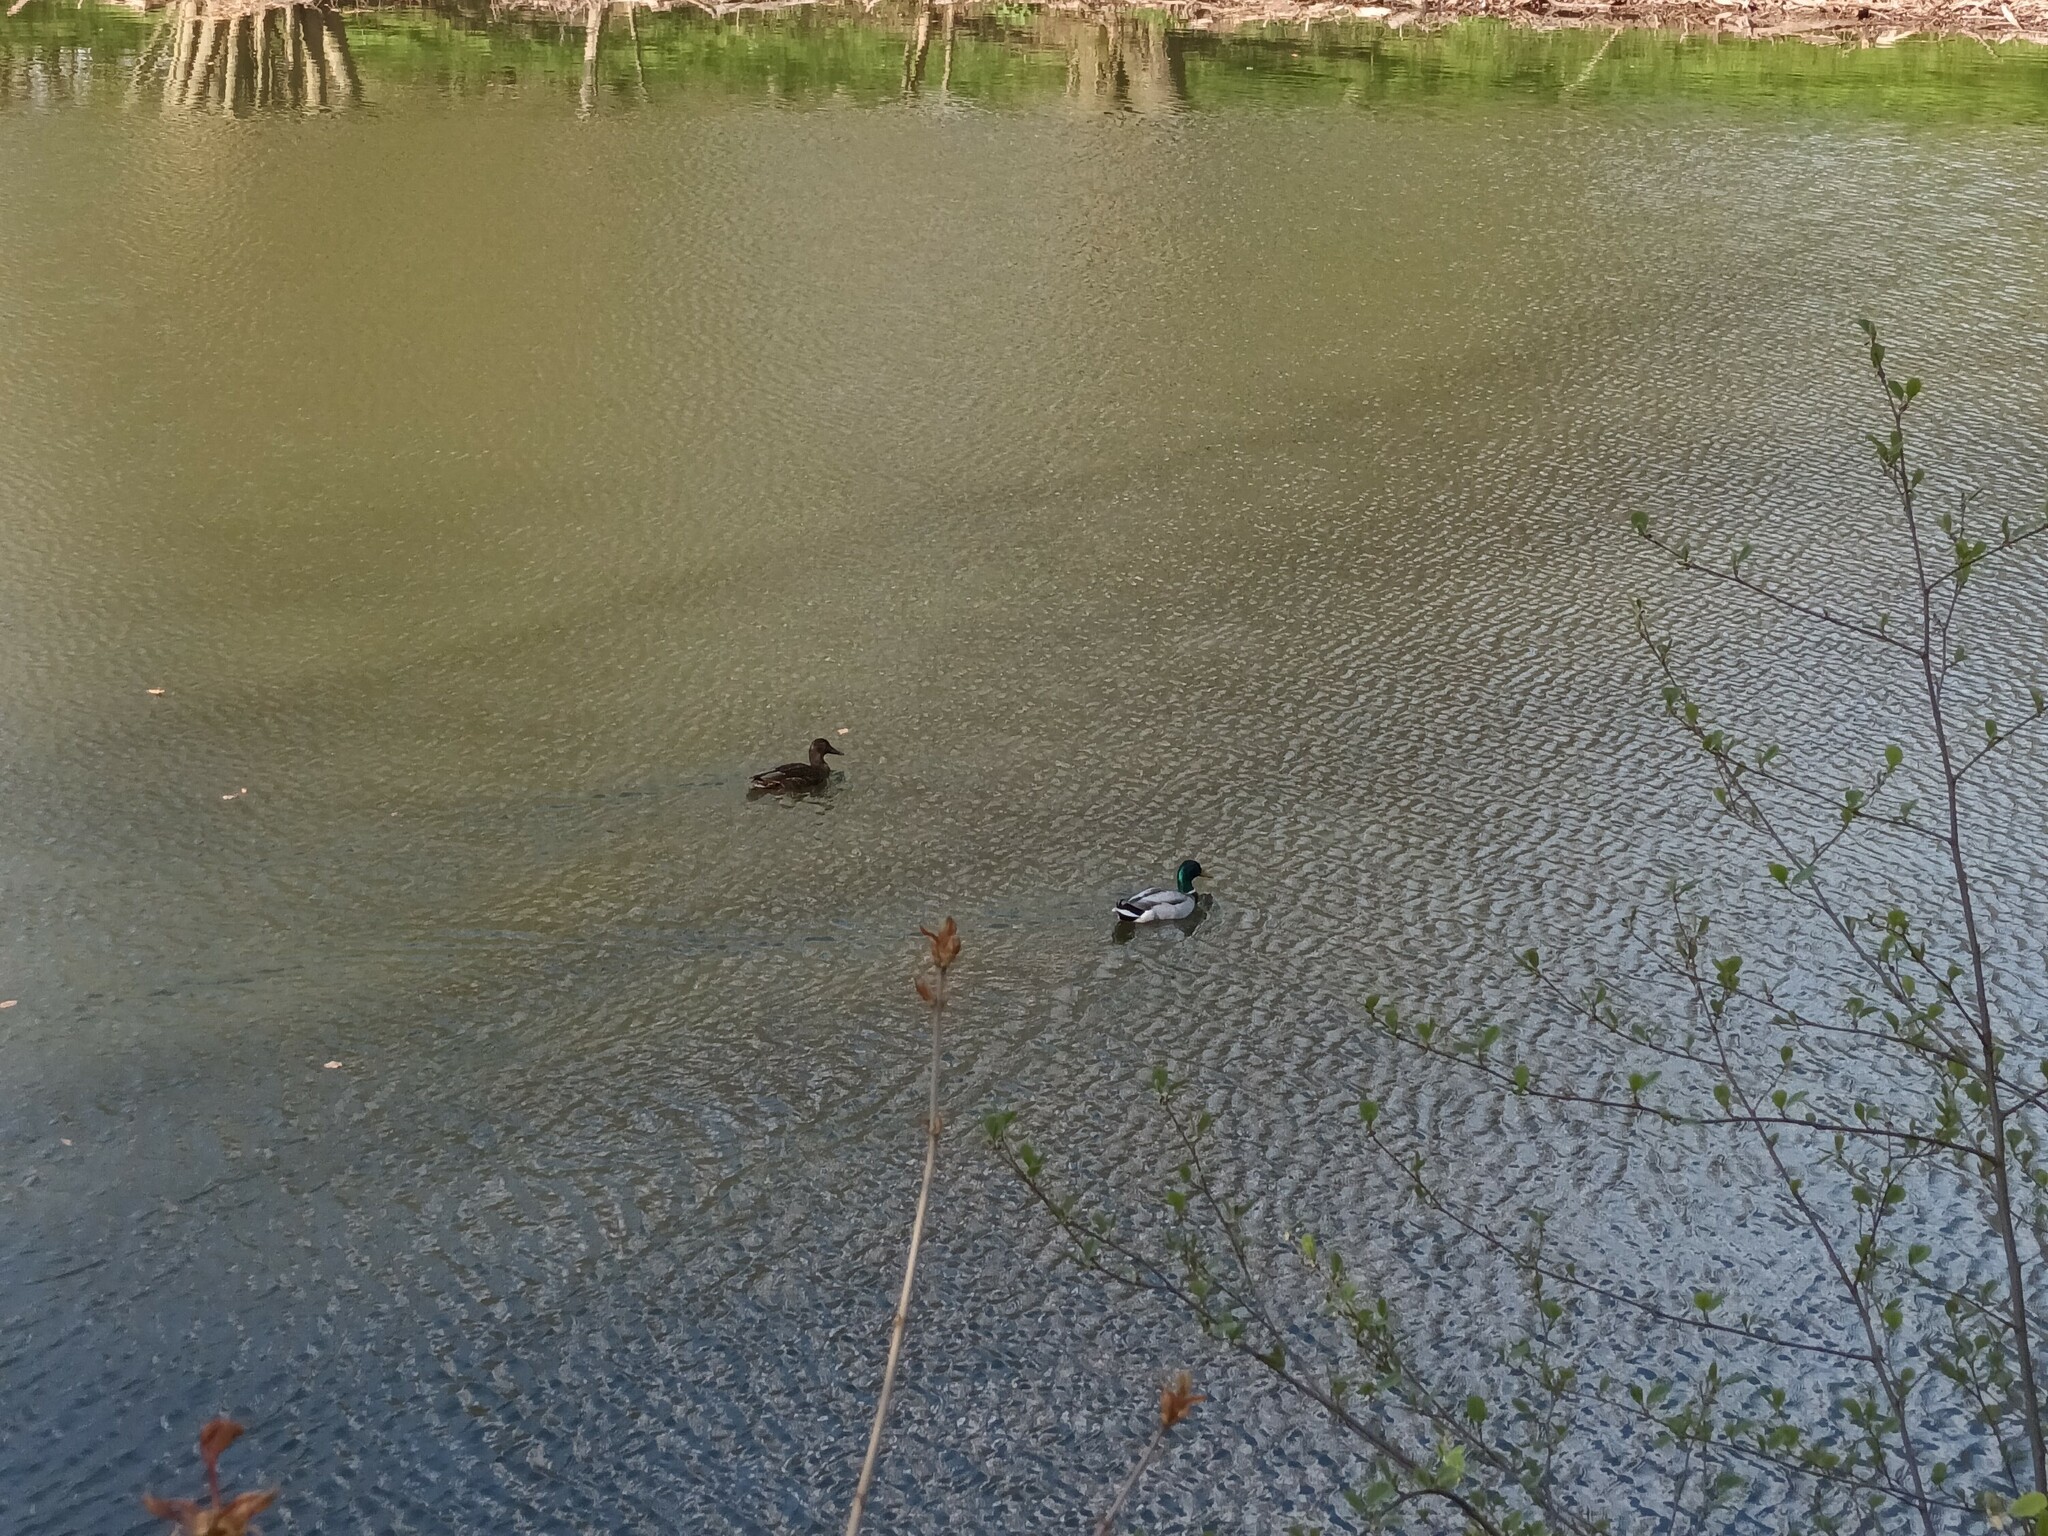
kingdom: Animalia
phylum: Chordata
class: Aves
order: Anseriformes
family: Anatidae
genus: Anas
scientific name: Anas platyrhynchos
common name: Mallard
